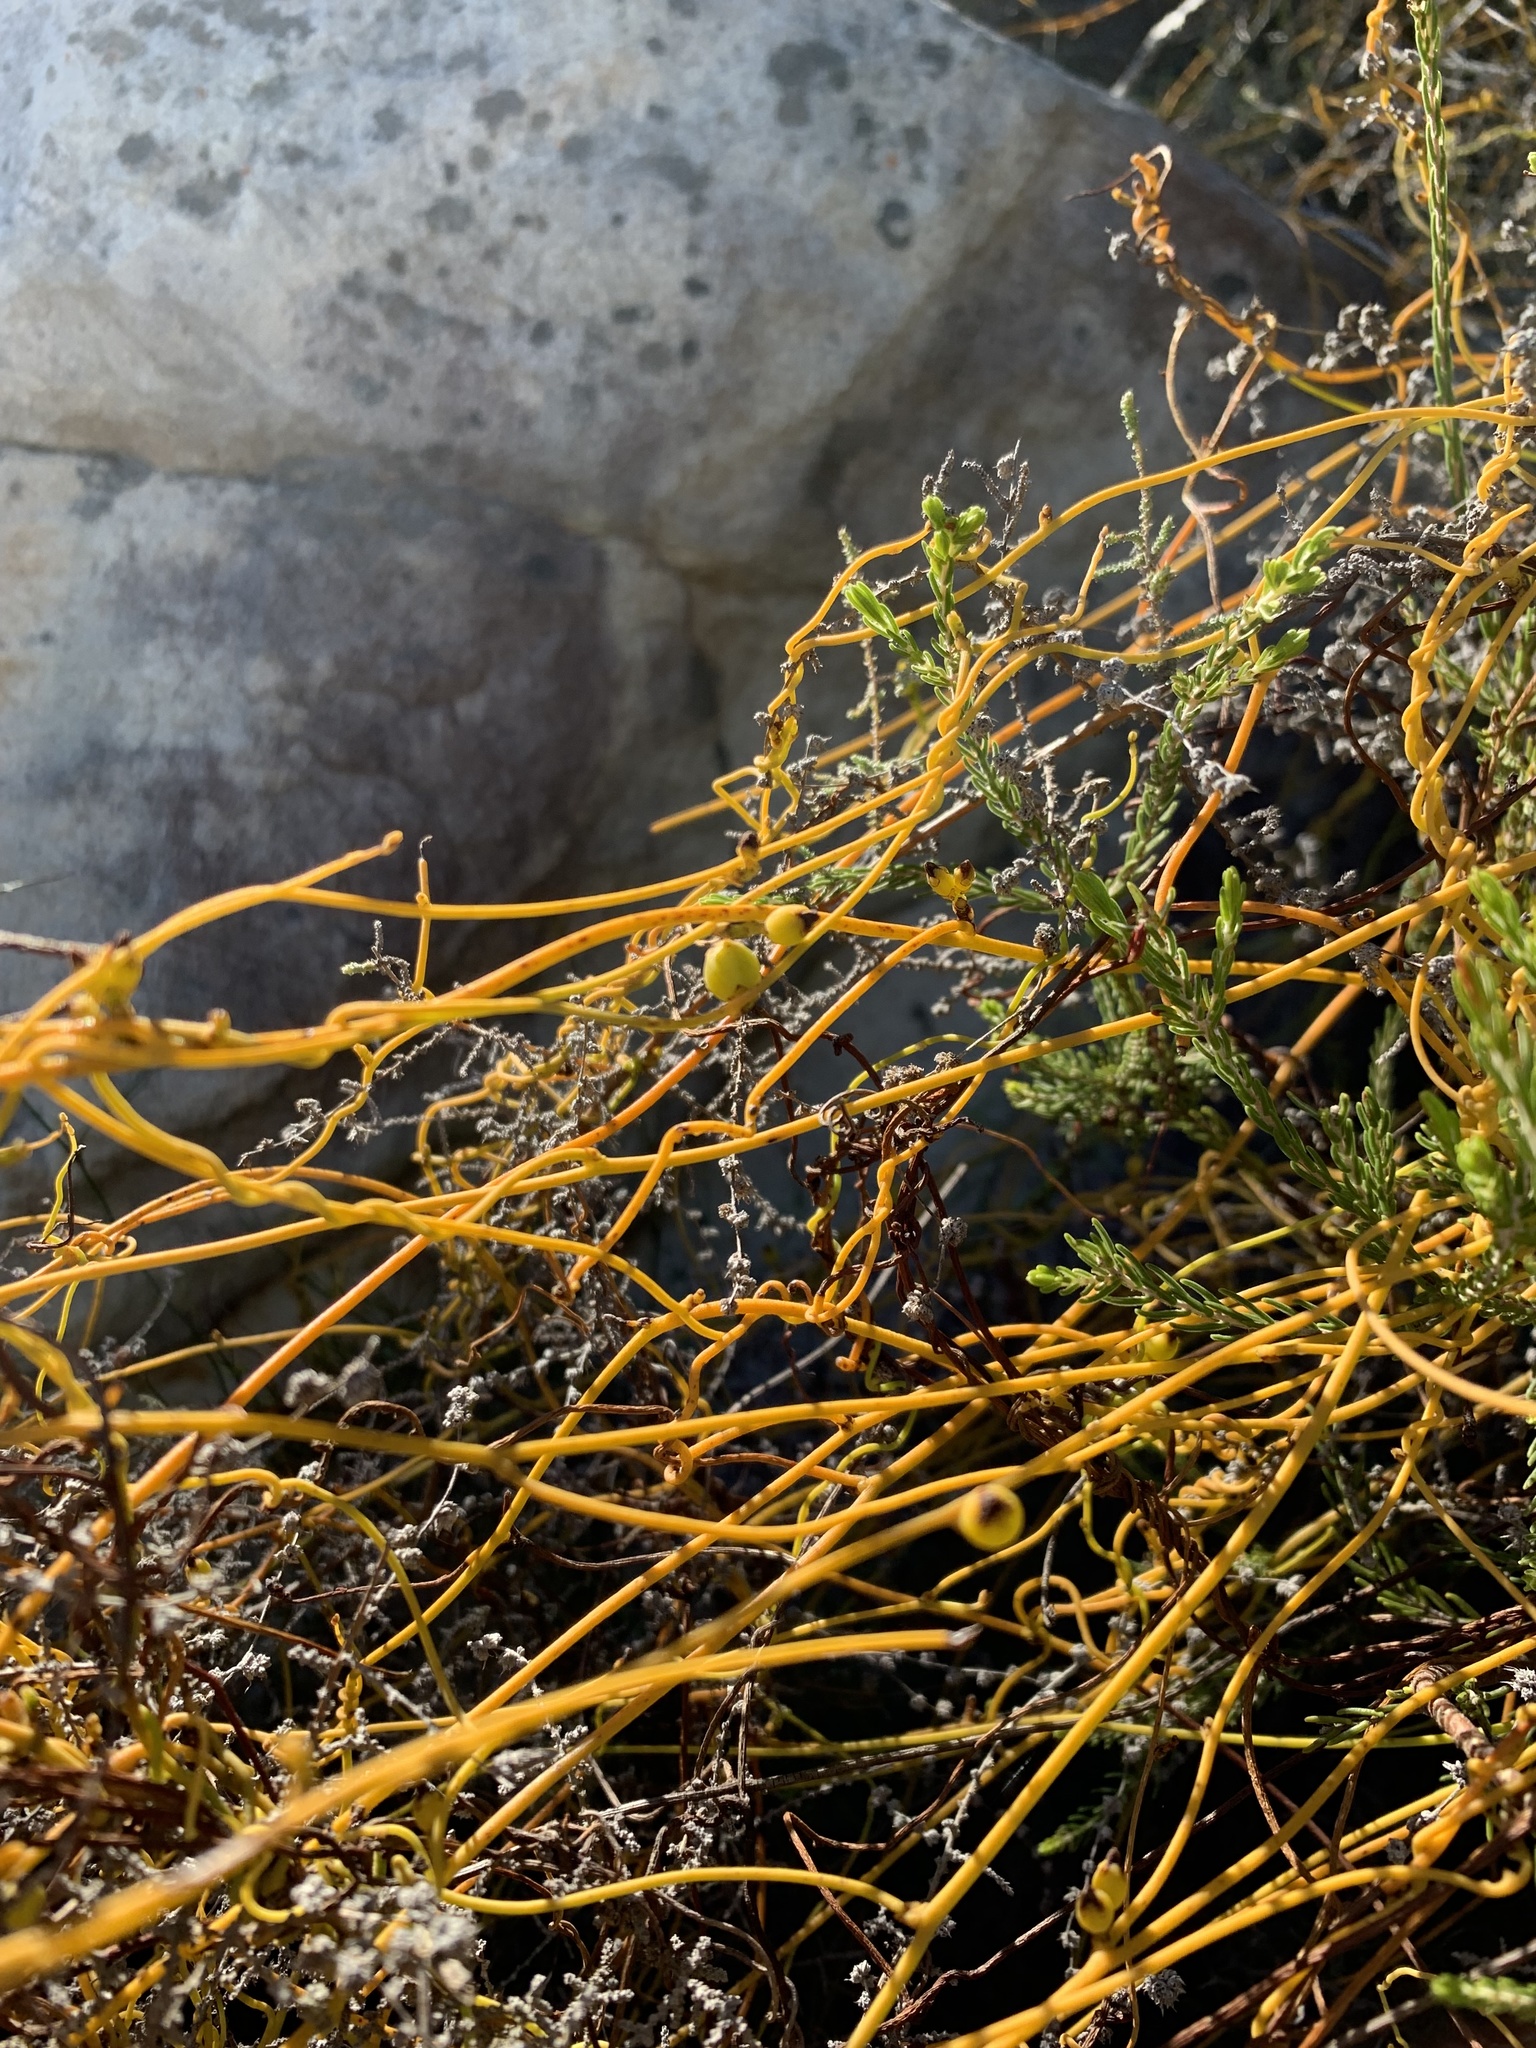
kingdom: Plantae
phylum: Tracheophyta
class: Magnoliopsida
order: Laurales
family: Lauraceae
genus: Cassytha
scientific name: Cassytha ciliolata
